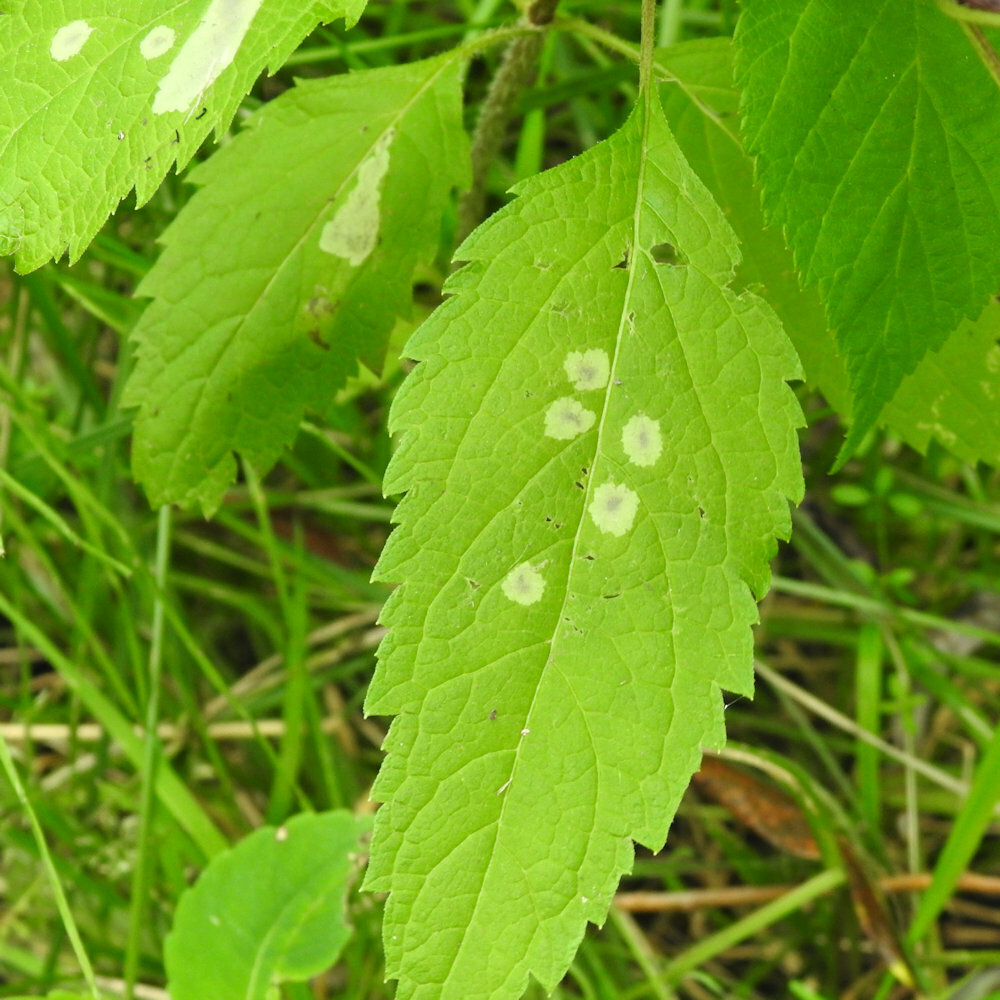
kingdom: Animalia
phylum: Arthropoda
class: Insecta
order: Diptera
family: Agromyzidae
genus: Calycomyza
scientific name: Calycomyza flavinotum
